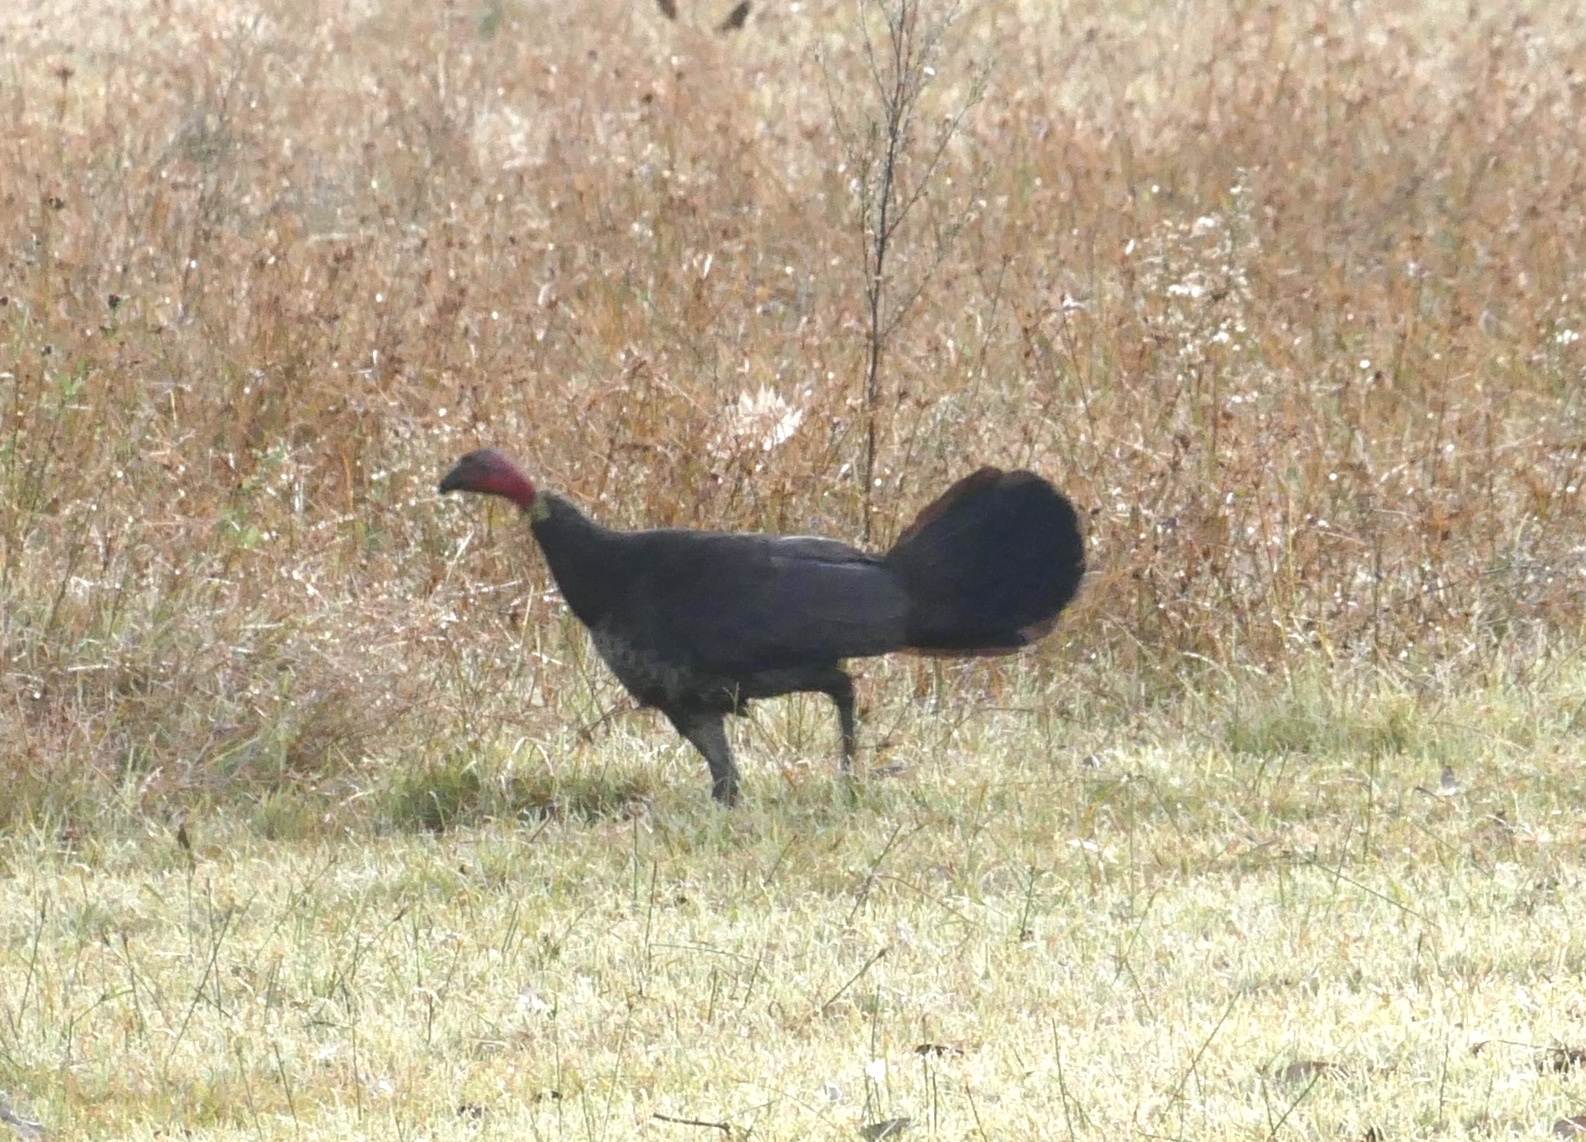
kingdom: Animalia
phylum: Chordata
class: Aves
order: Galliformes
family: Megapodiidae
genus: Alectura
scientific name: Alectura lathami
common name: Australian brushturkey
